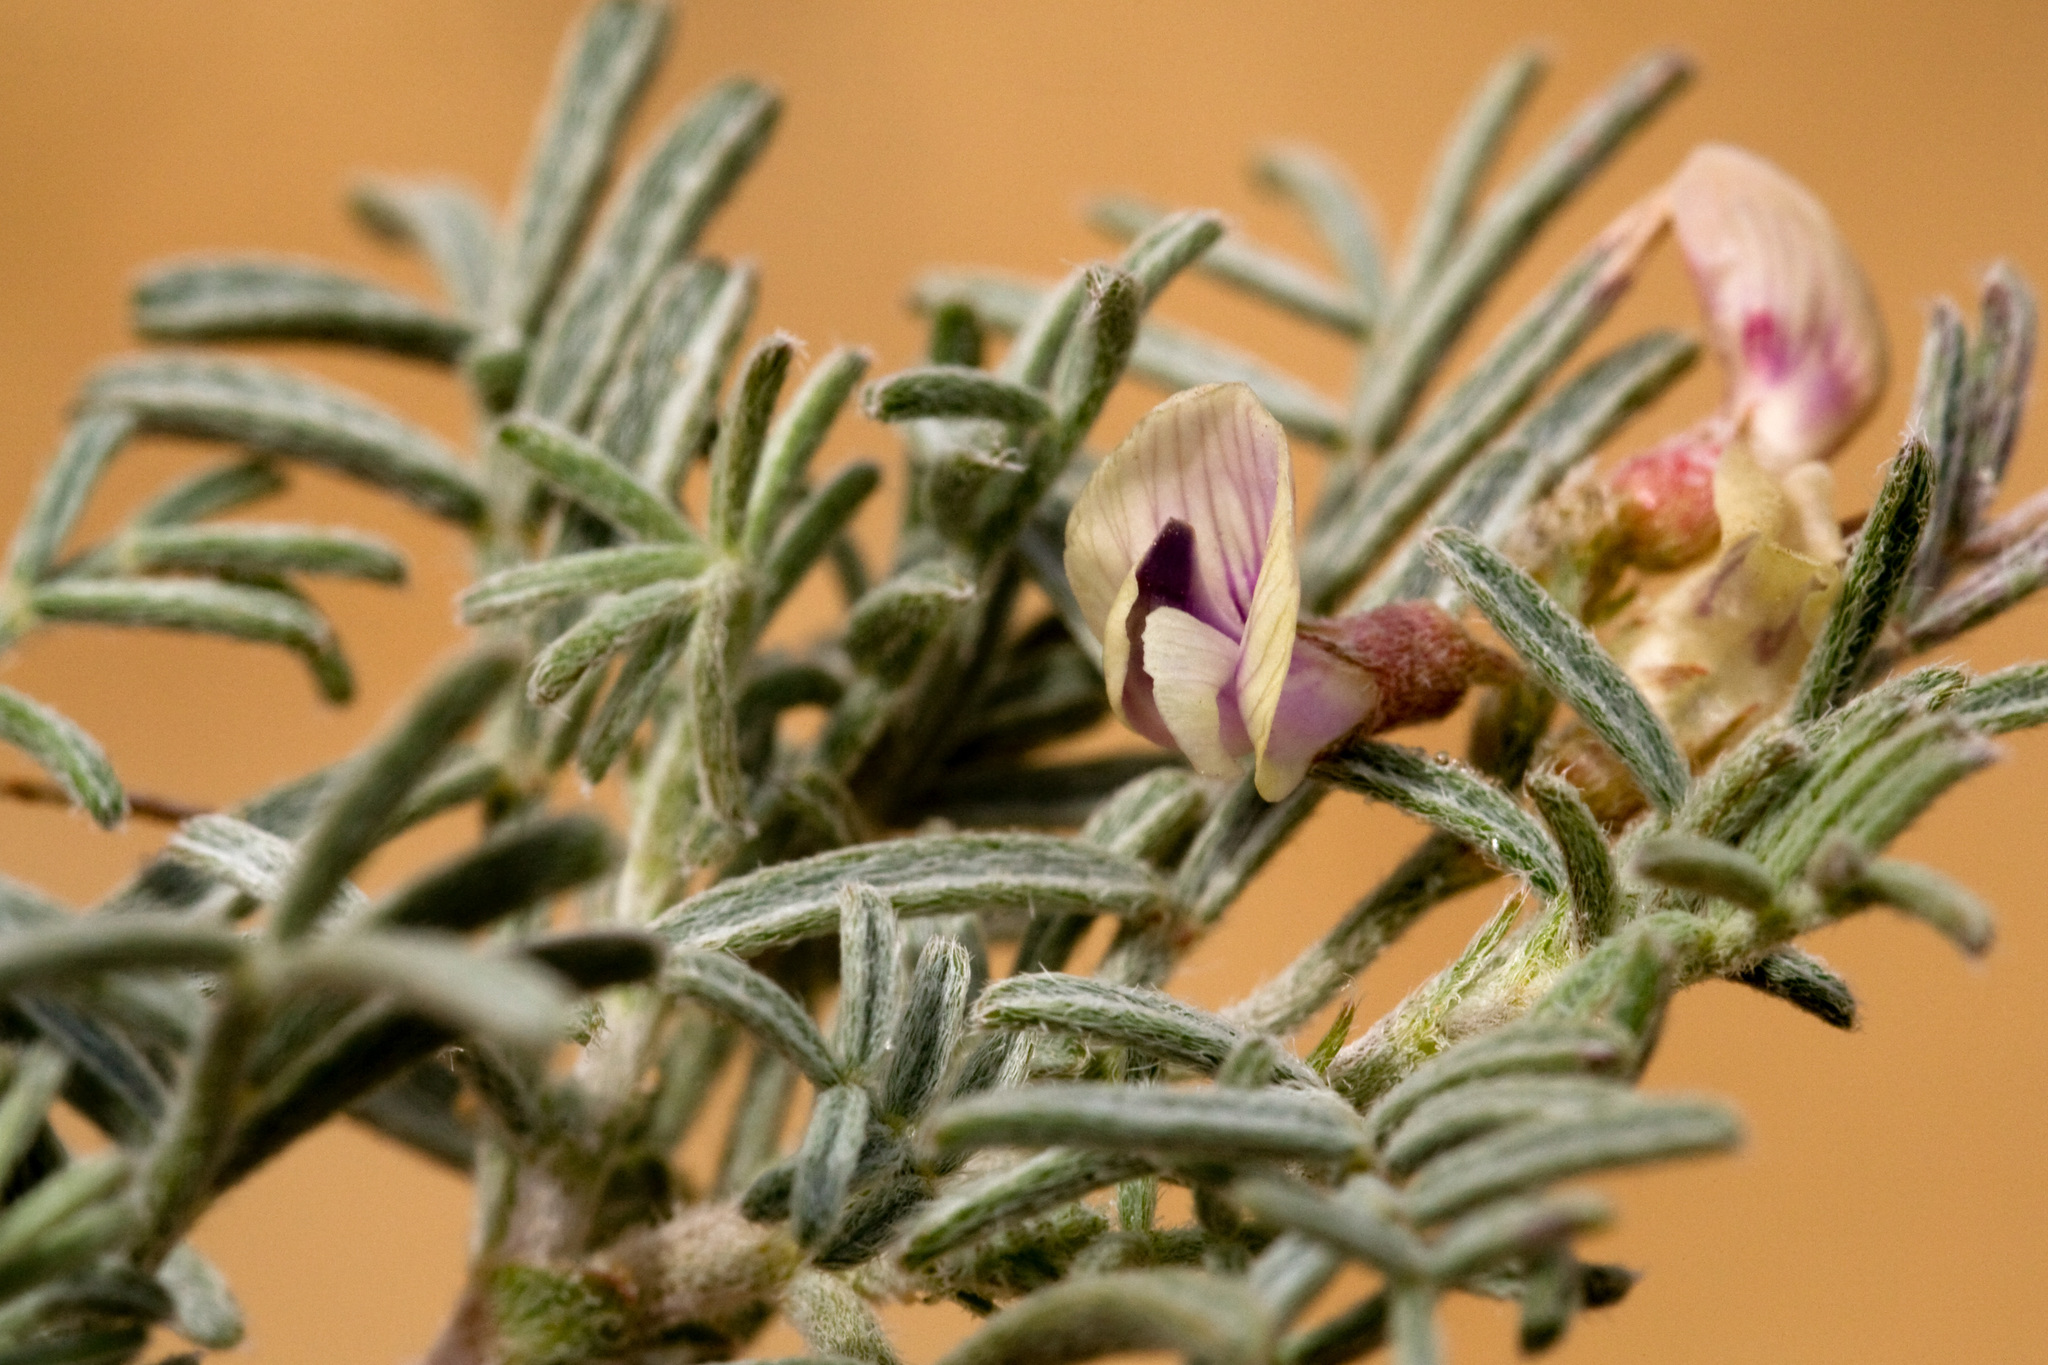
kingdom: Plantae
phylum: Tracheophyta
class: Magnoliopsida
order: Fabales
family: Fabaceae
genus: Astragalus
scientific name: Astragalus ceramicus
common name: Painted milk-vetch
